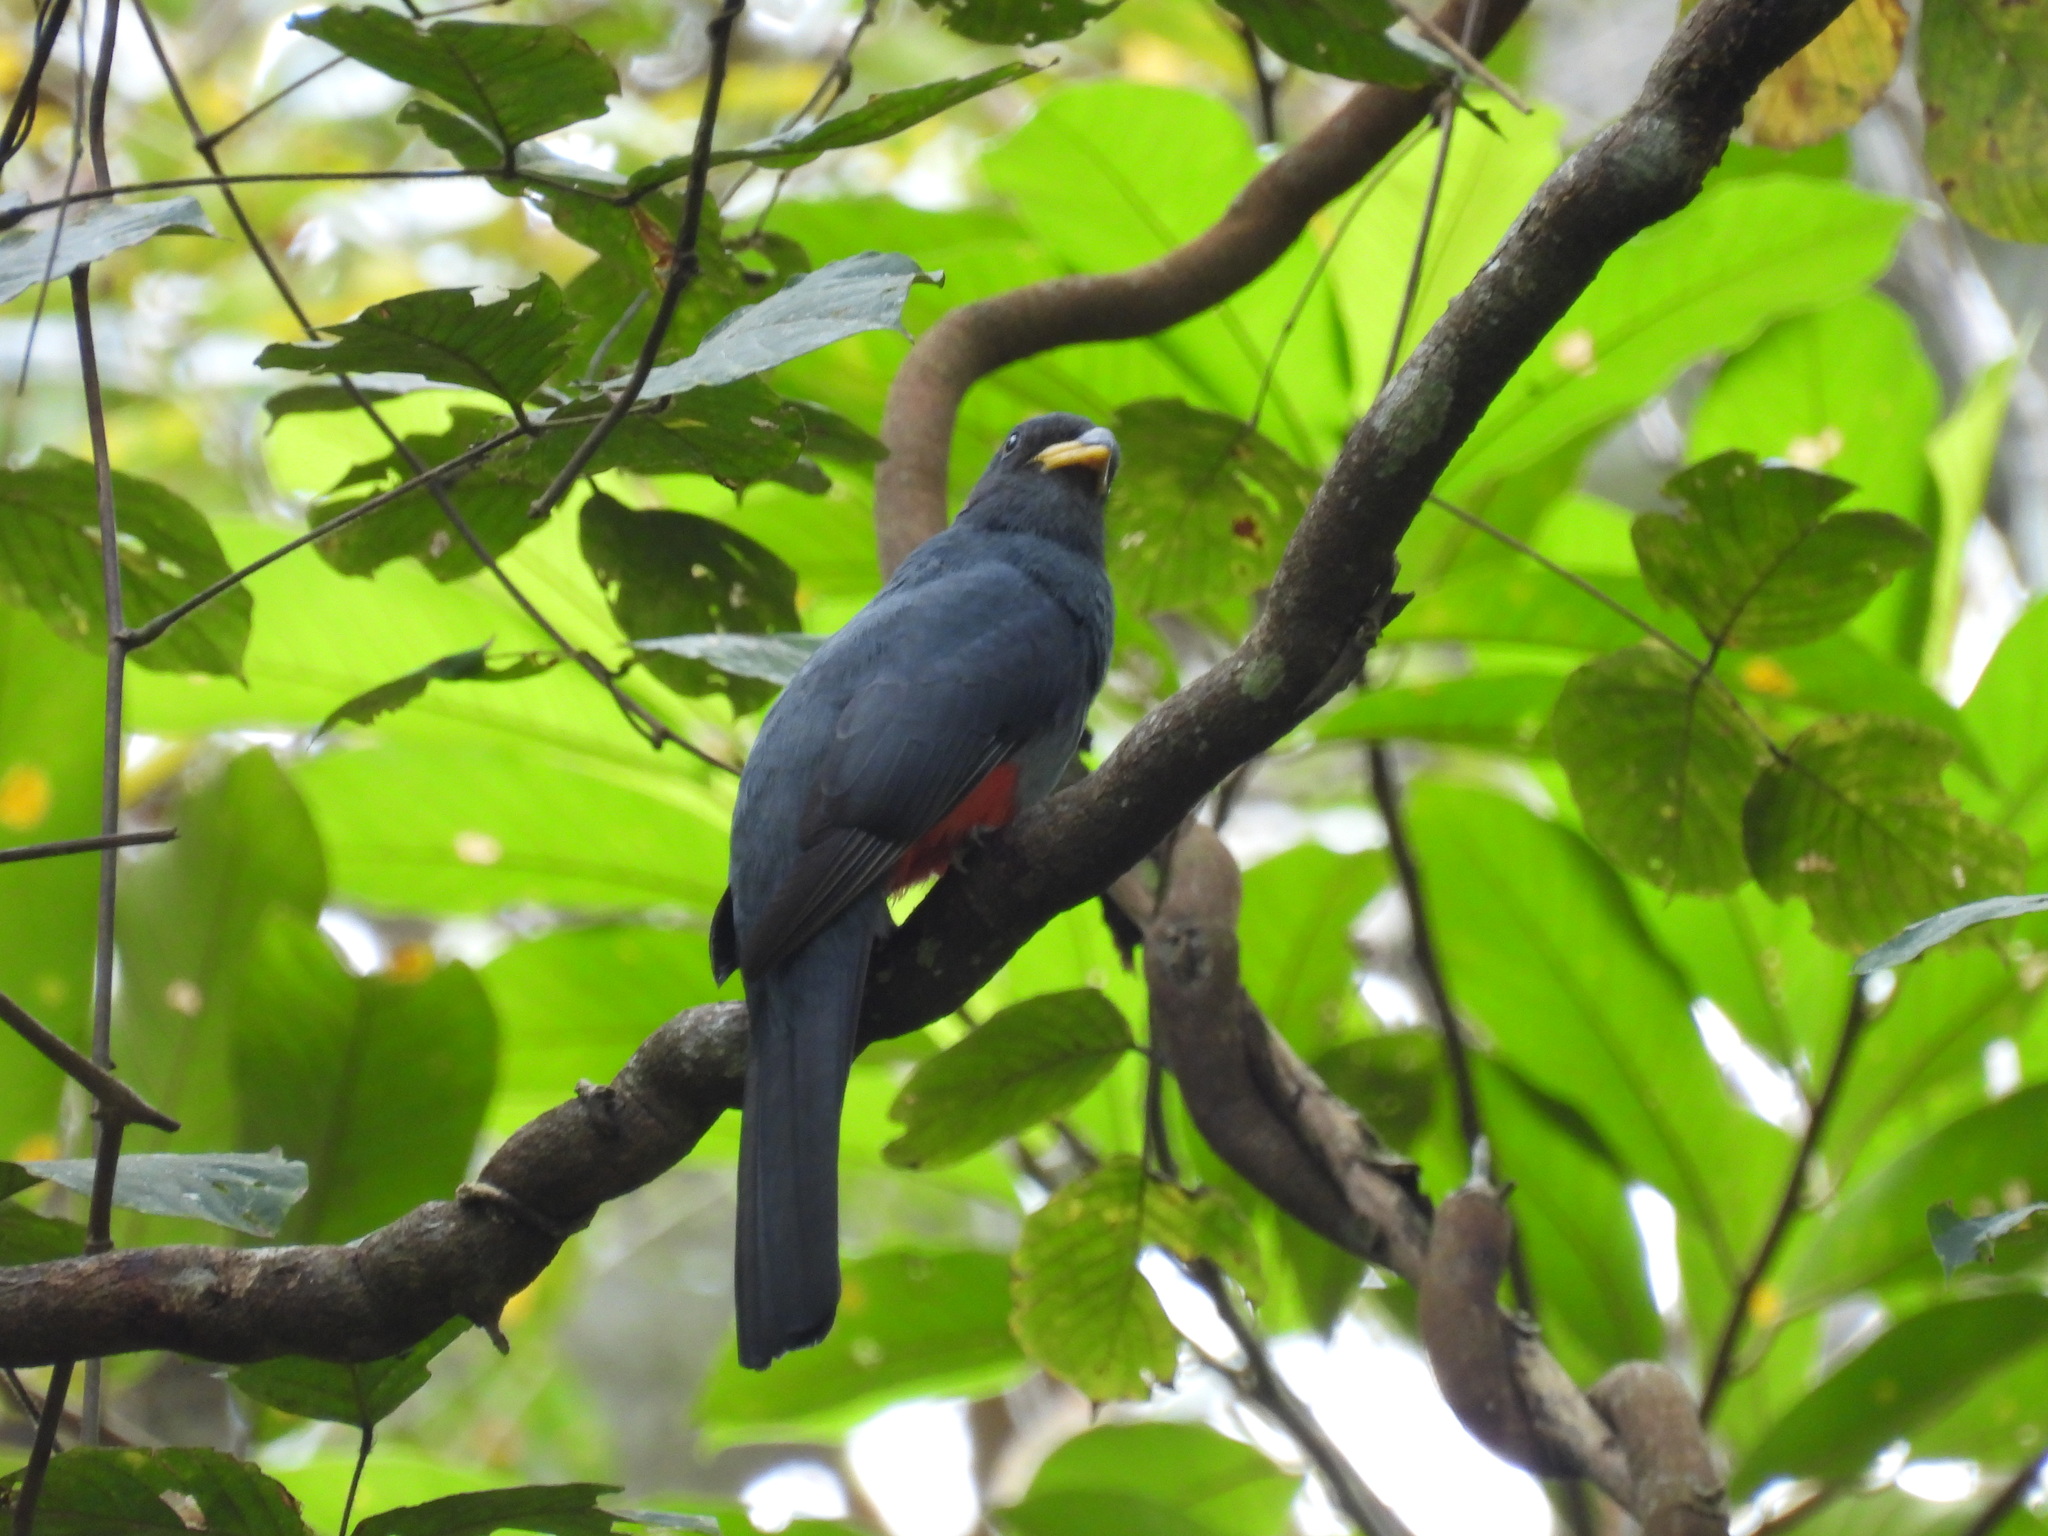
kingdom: Animalia
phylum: Chordata
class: Aves
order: Trogoniformes
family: Trogonidae
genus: Trogon
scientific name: Trogon massena
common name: Slaty-tailed trogon
